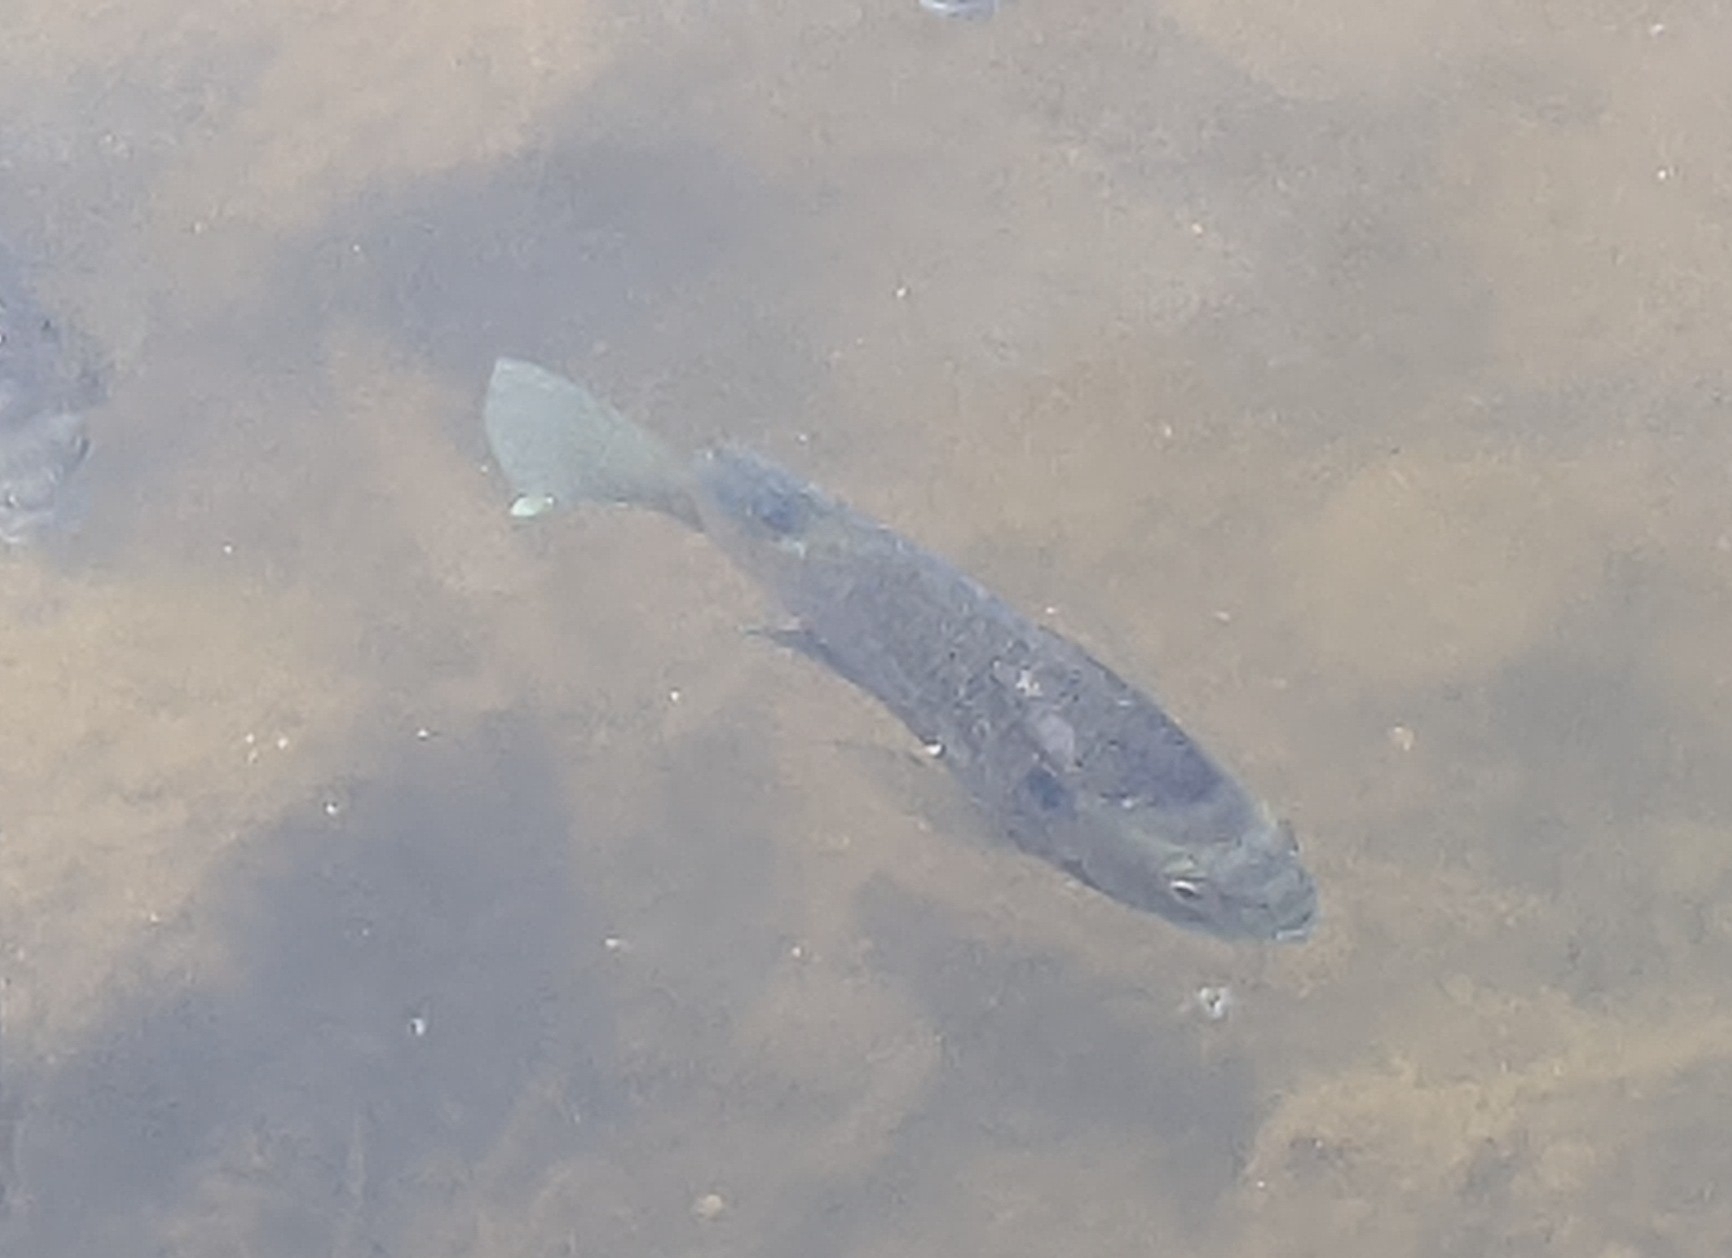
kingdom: Animalia
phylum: Chordata
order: Perciformes
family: Centrarchidae
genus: Lepomis
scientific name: Lepomis macrochirus
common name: Bluegill
